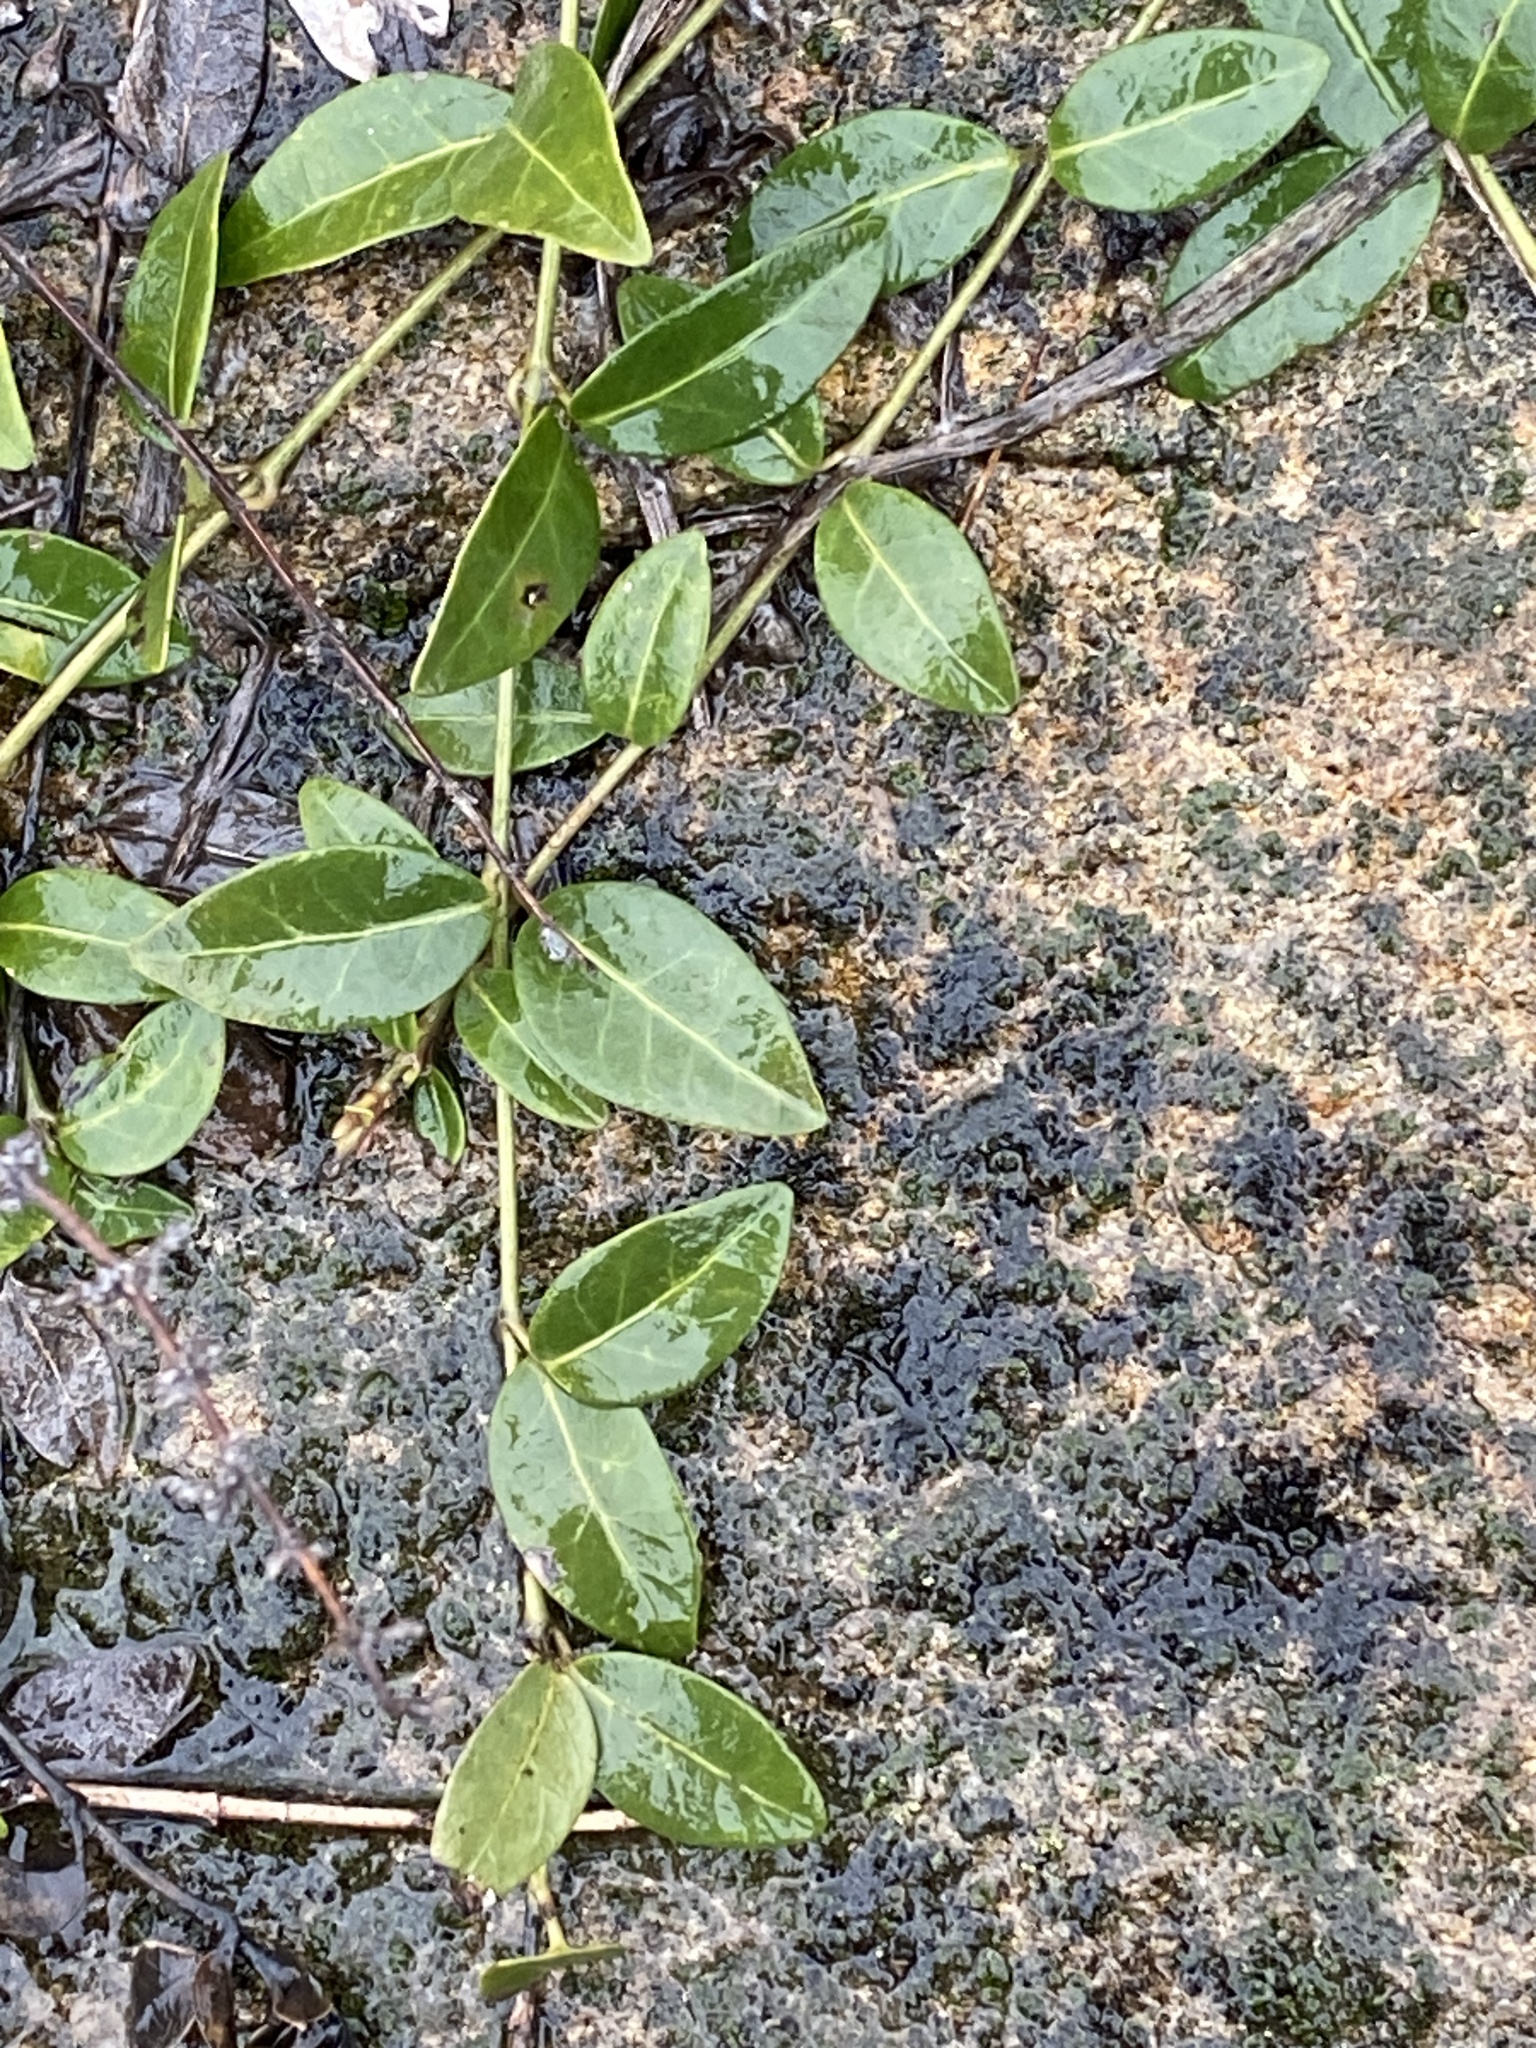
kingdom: Plantae
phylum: Tracheophyta
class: Magnoliopsida
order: Gentianales
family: Apocynaceae
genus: Vinca
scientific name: Vinca minor
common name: Lesser periwinkle
